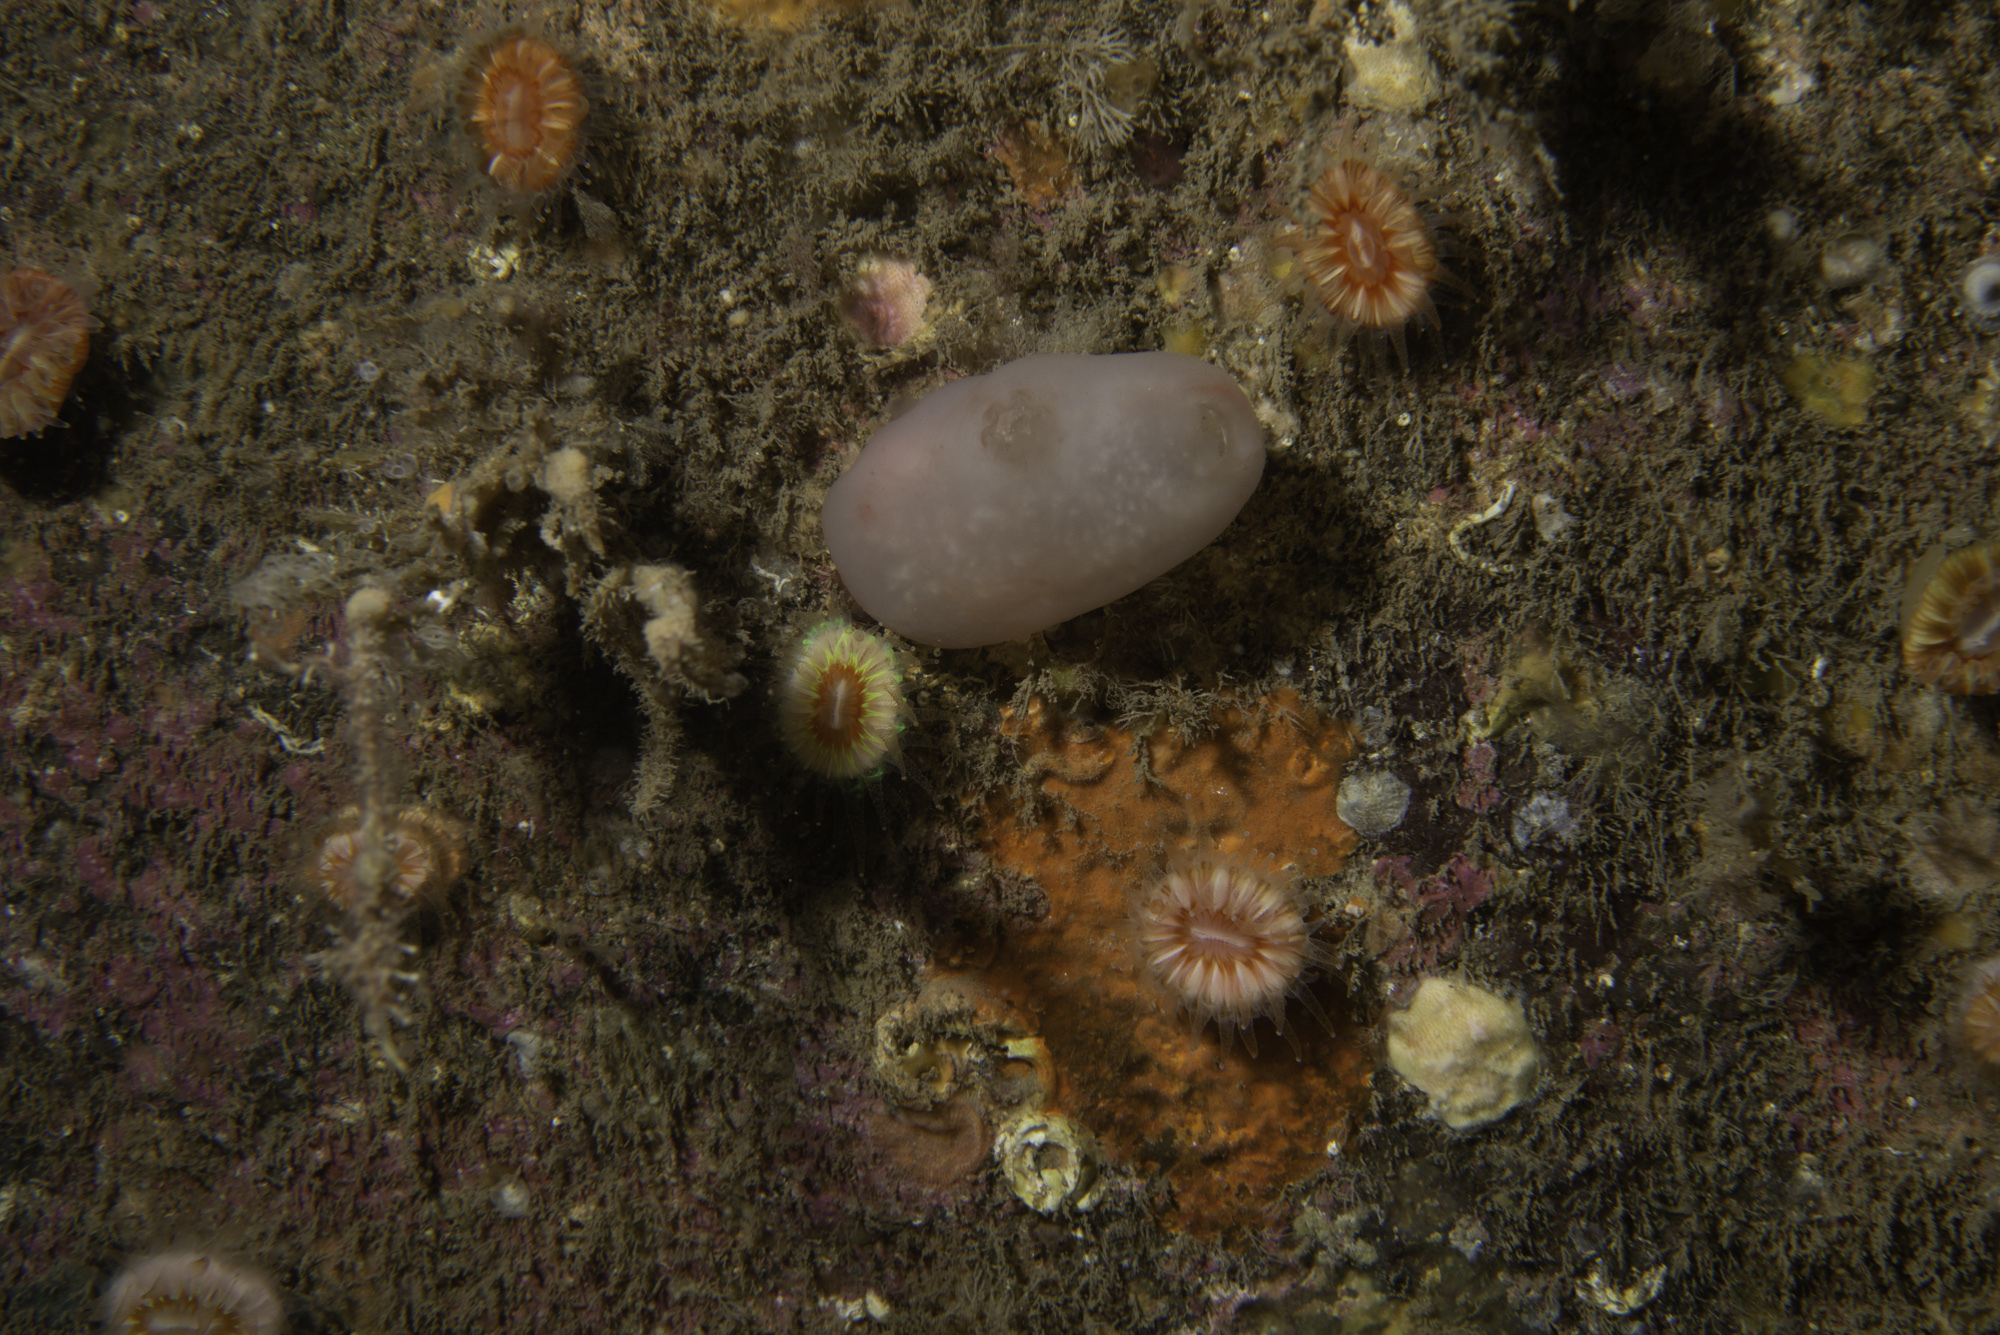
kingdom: Animalia
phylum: Chordata
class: Ascidiacea
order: Phlebobranchia
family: Ascidiidae
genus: Ascidia
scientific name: Ascidia virginea
